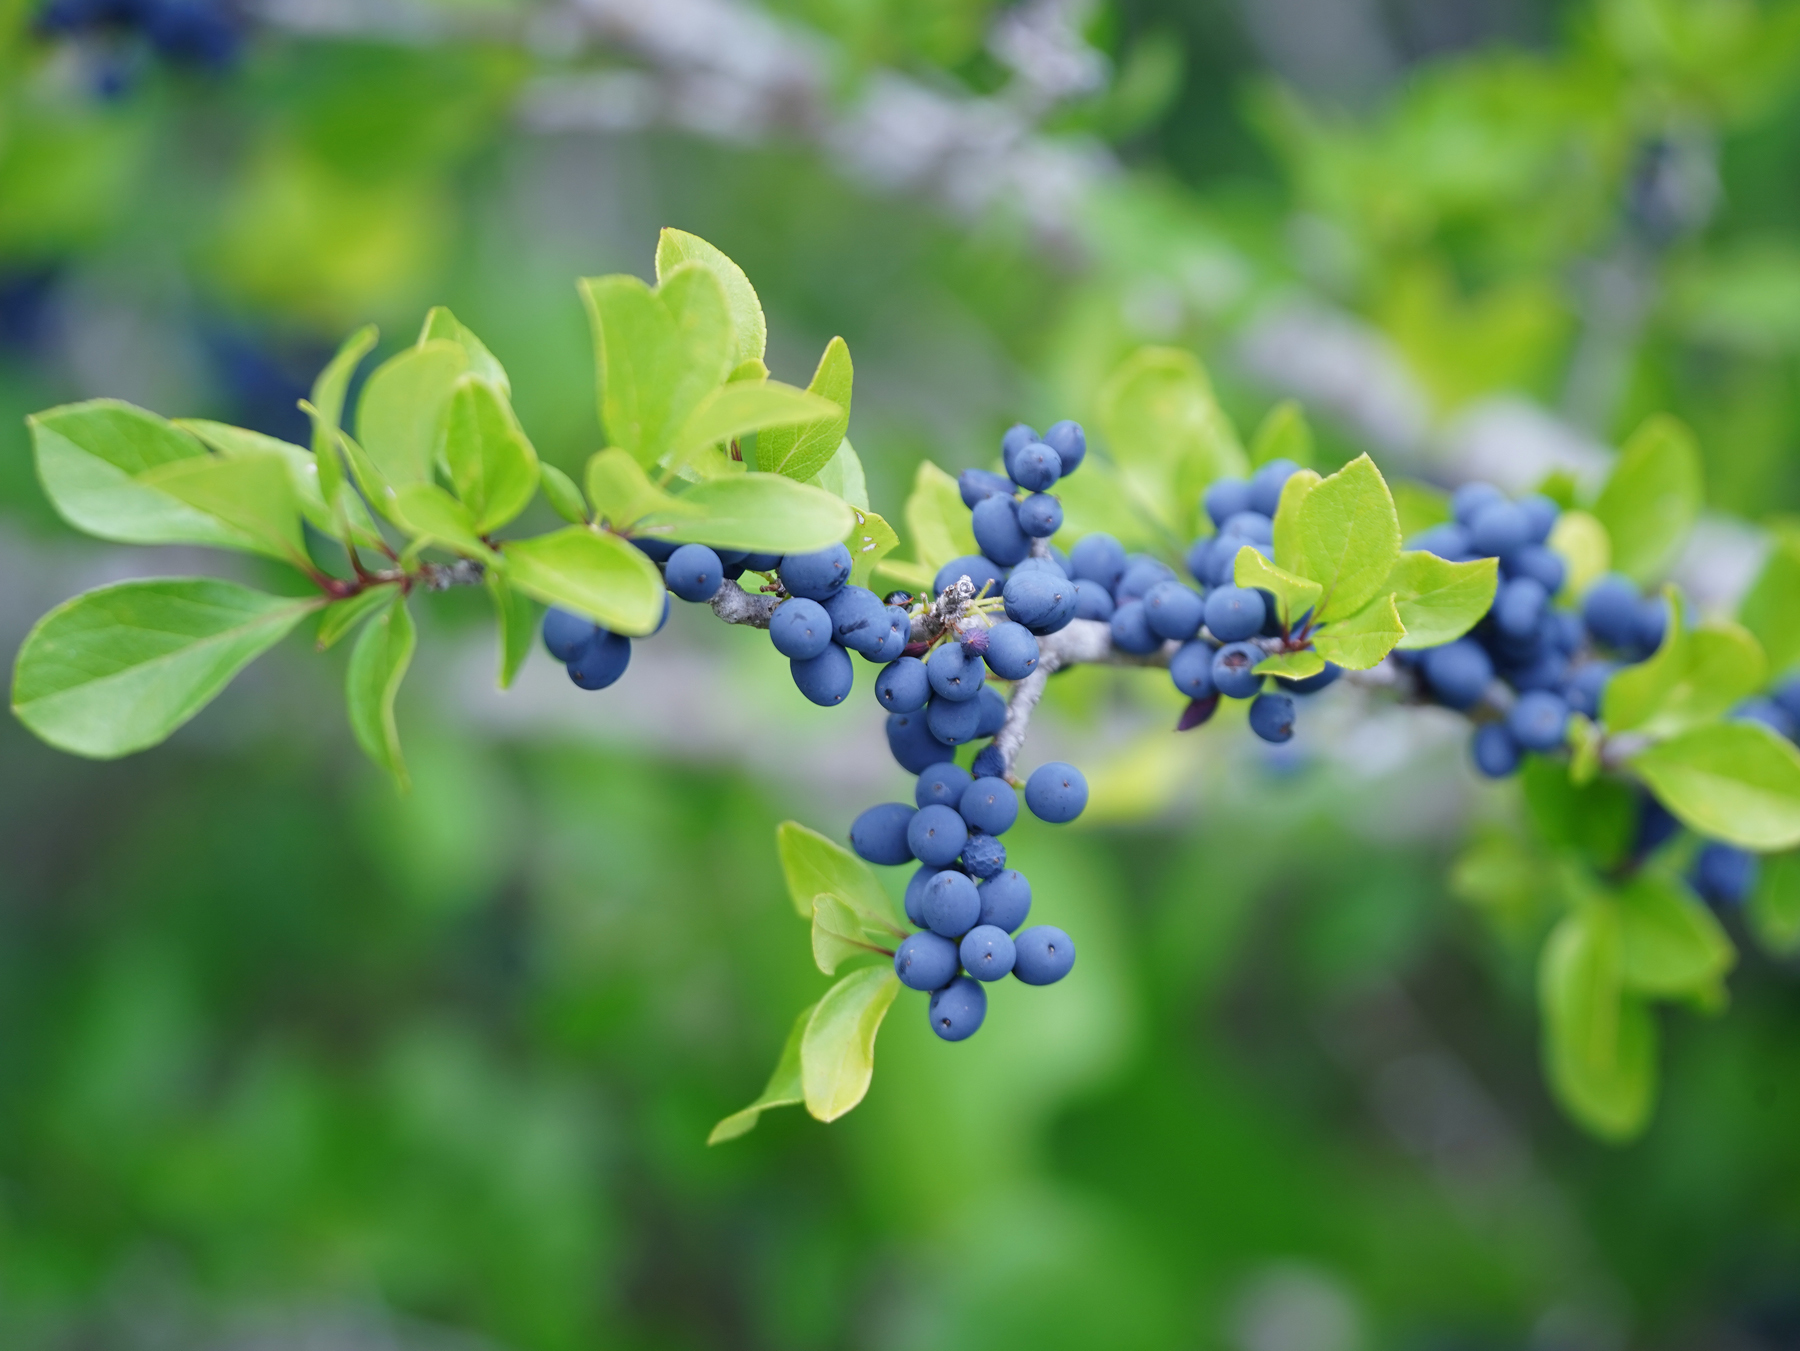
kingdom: Plantae
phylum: Tracheophyta
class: Magnoliopsida
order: Lamiales
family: Oleaceae
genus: Forestiera
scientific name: Forestiera pubescens
